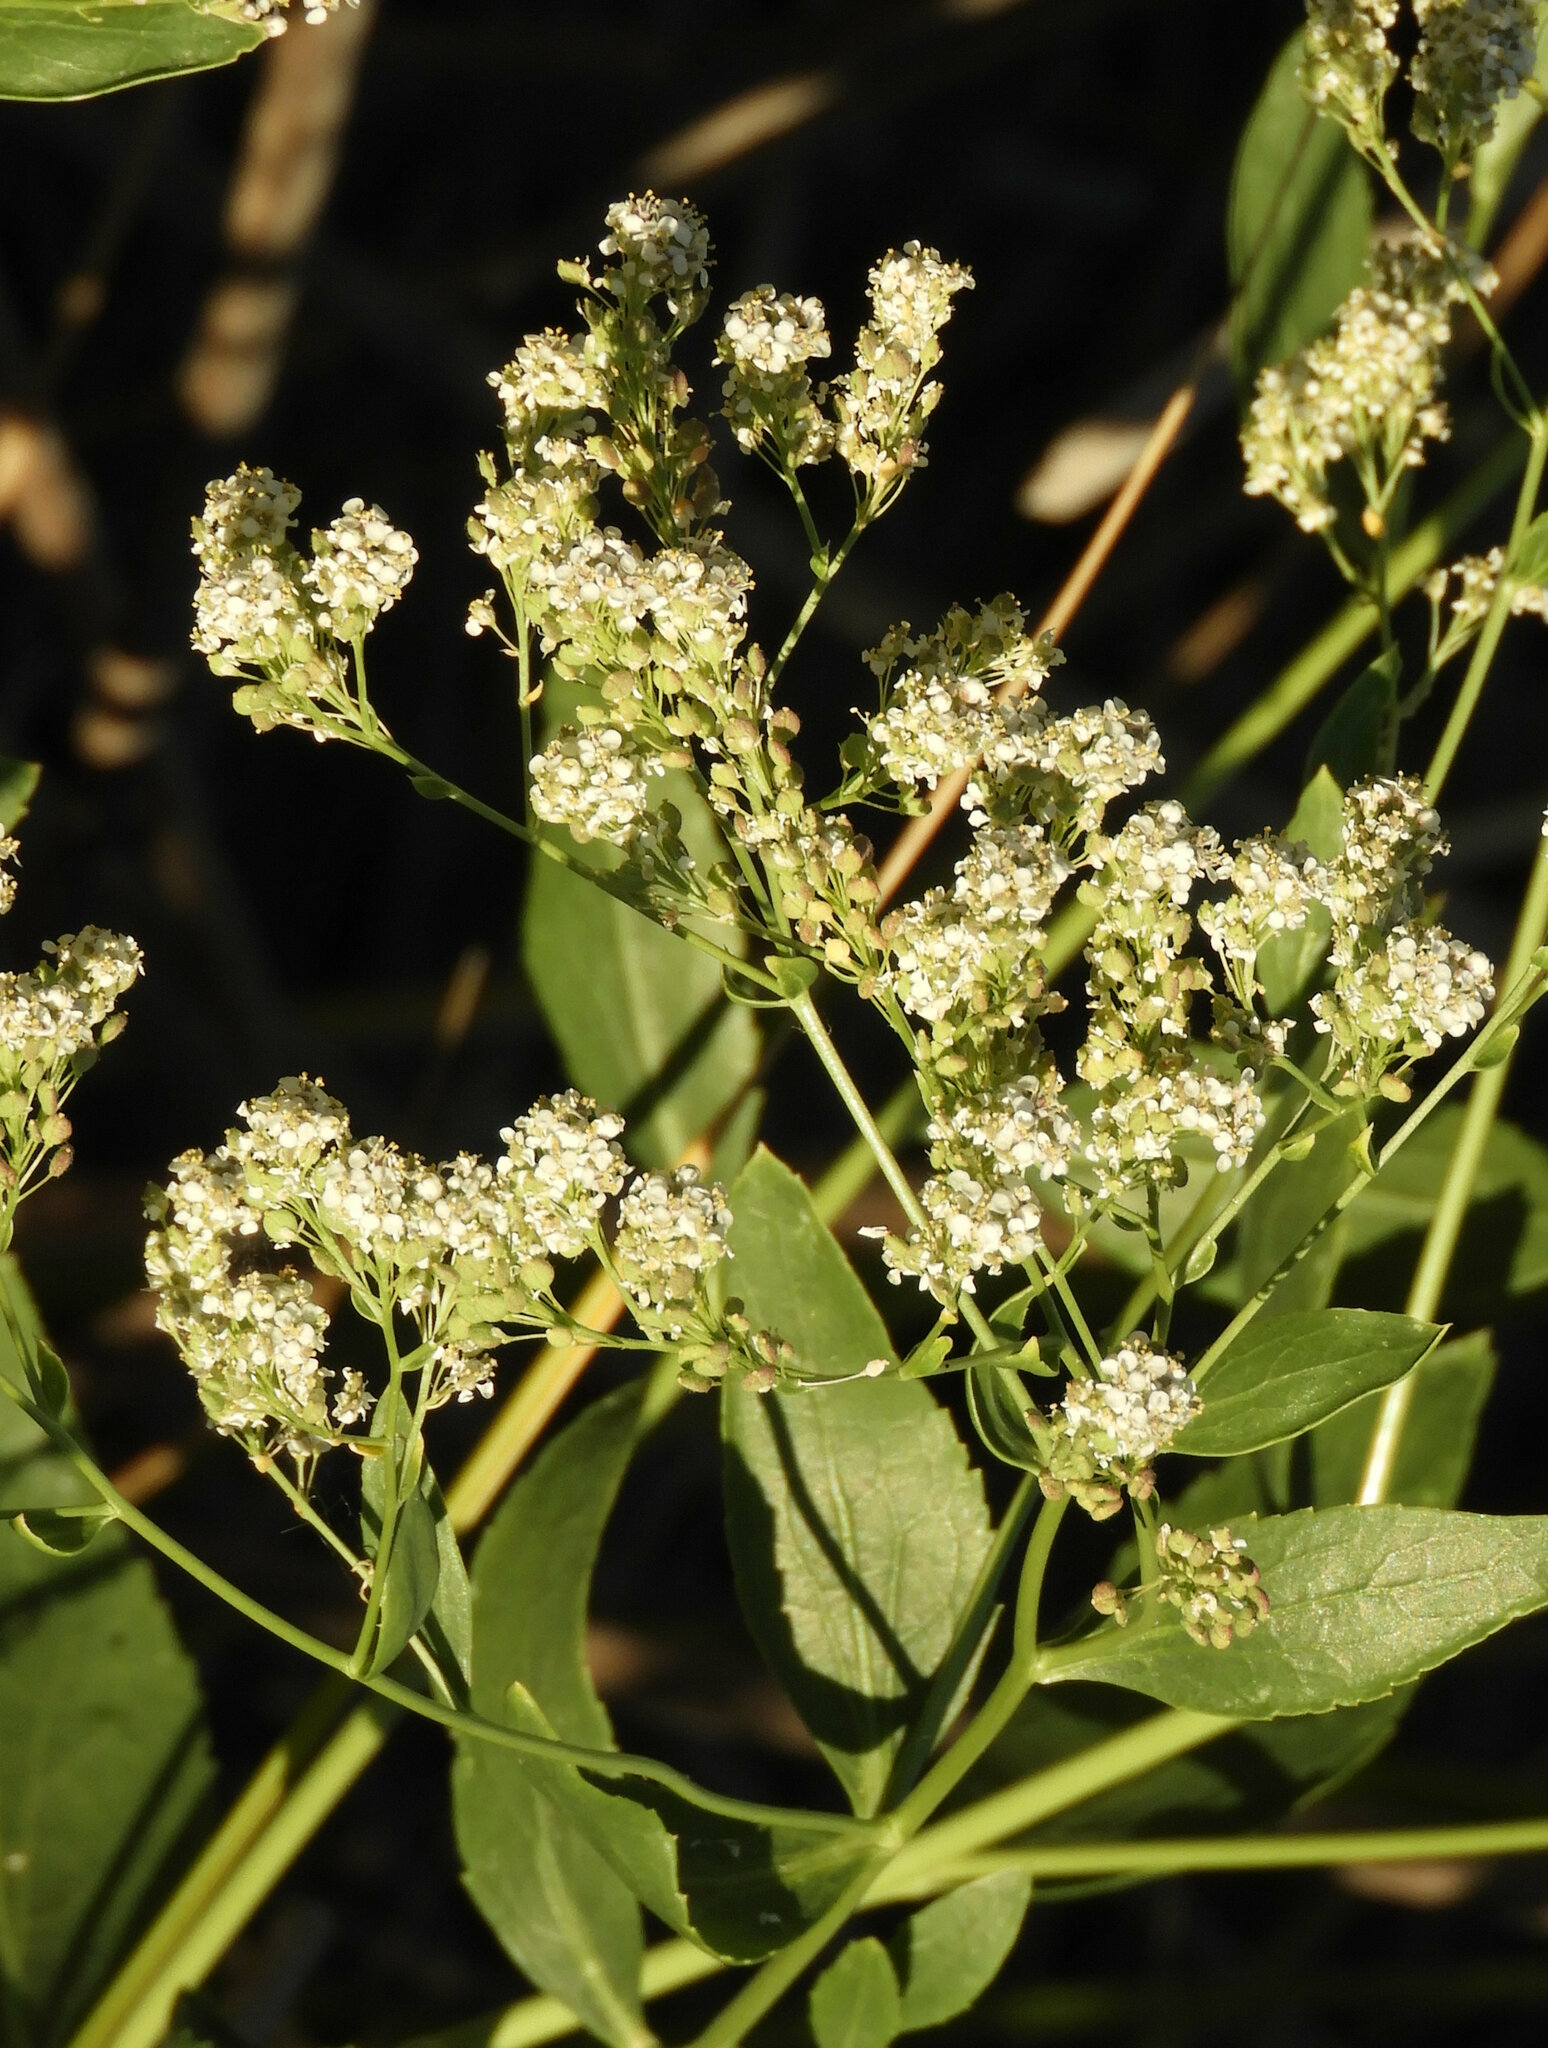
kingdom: Plantae
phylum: Tracheophyta
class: Magnoliopsida
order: Brassicales
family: Brassicaceae
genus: Lepidium
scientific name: Lepidium latifolium
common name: Dittander
